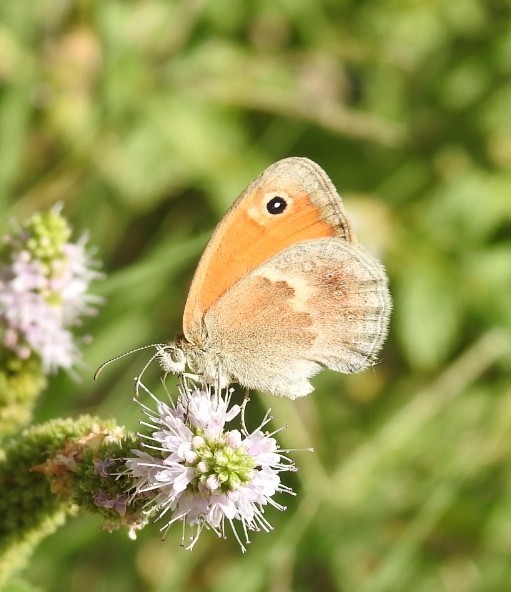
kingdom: Animalia
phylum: Arthropoda
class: Insecta
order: Lepidoptera
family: Nymphalidae
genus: Coenonympha
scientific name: Coenonympha pamphilus
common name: Small heath
